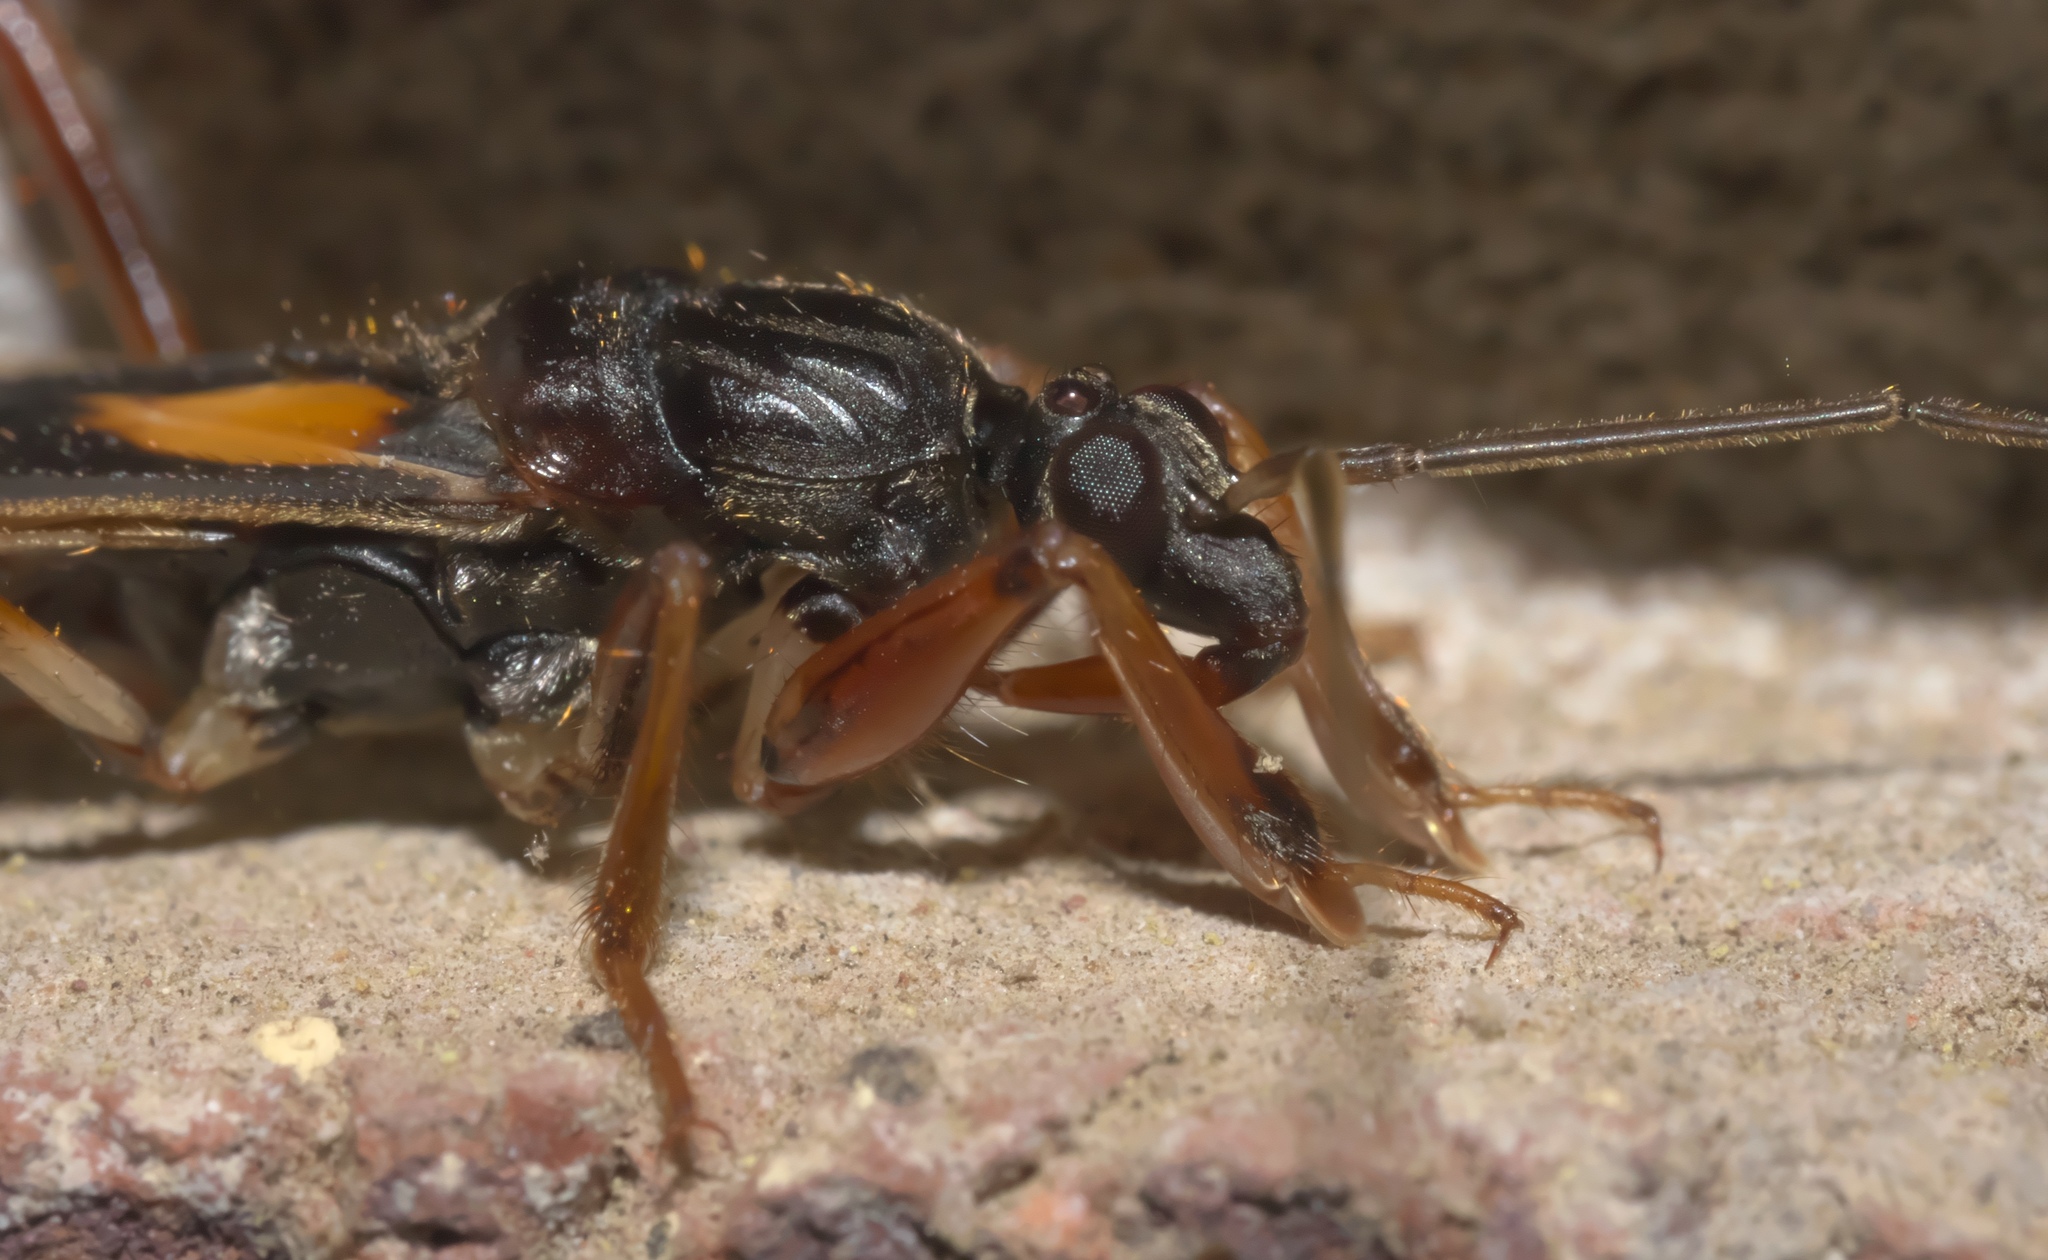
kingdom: Animalia
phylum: Arthropoda
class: Insecta
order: Hemiptera
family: Reduviidae
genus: Rasahus
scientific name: Rasahus hamatus
